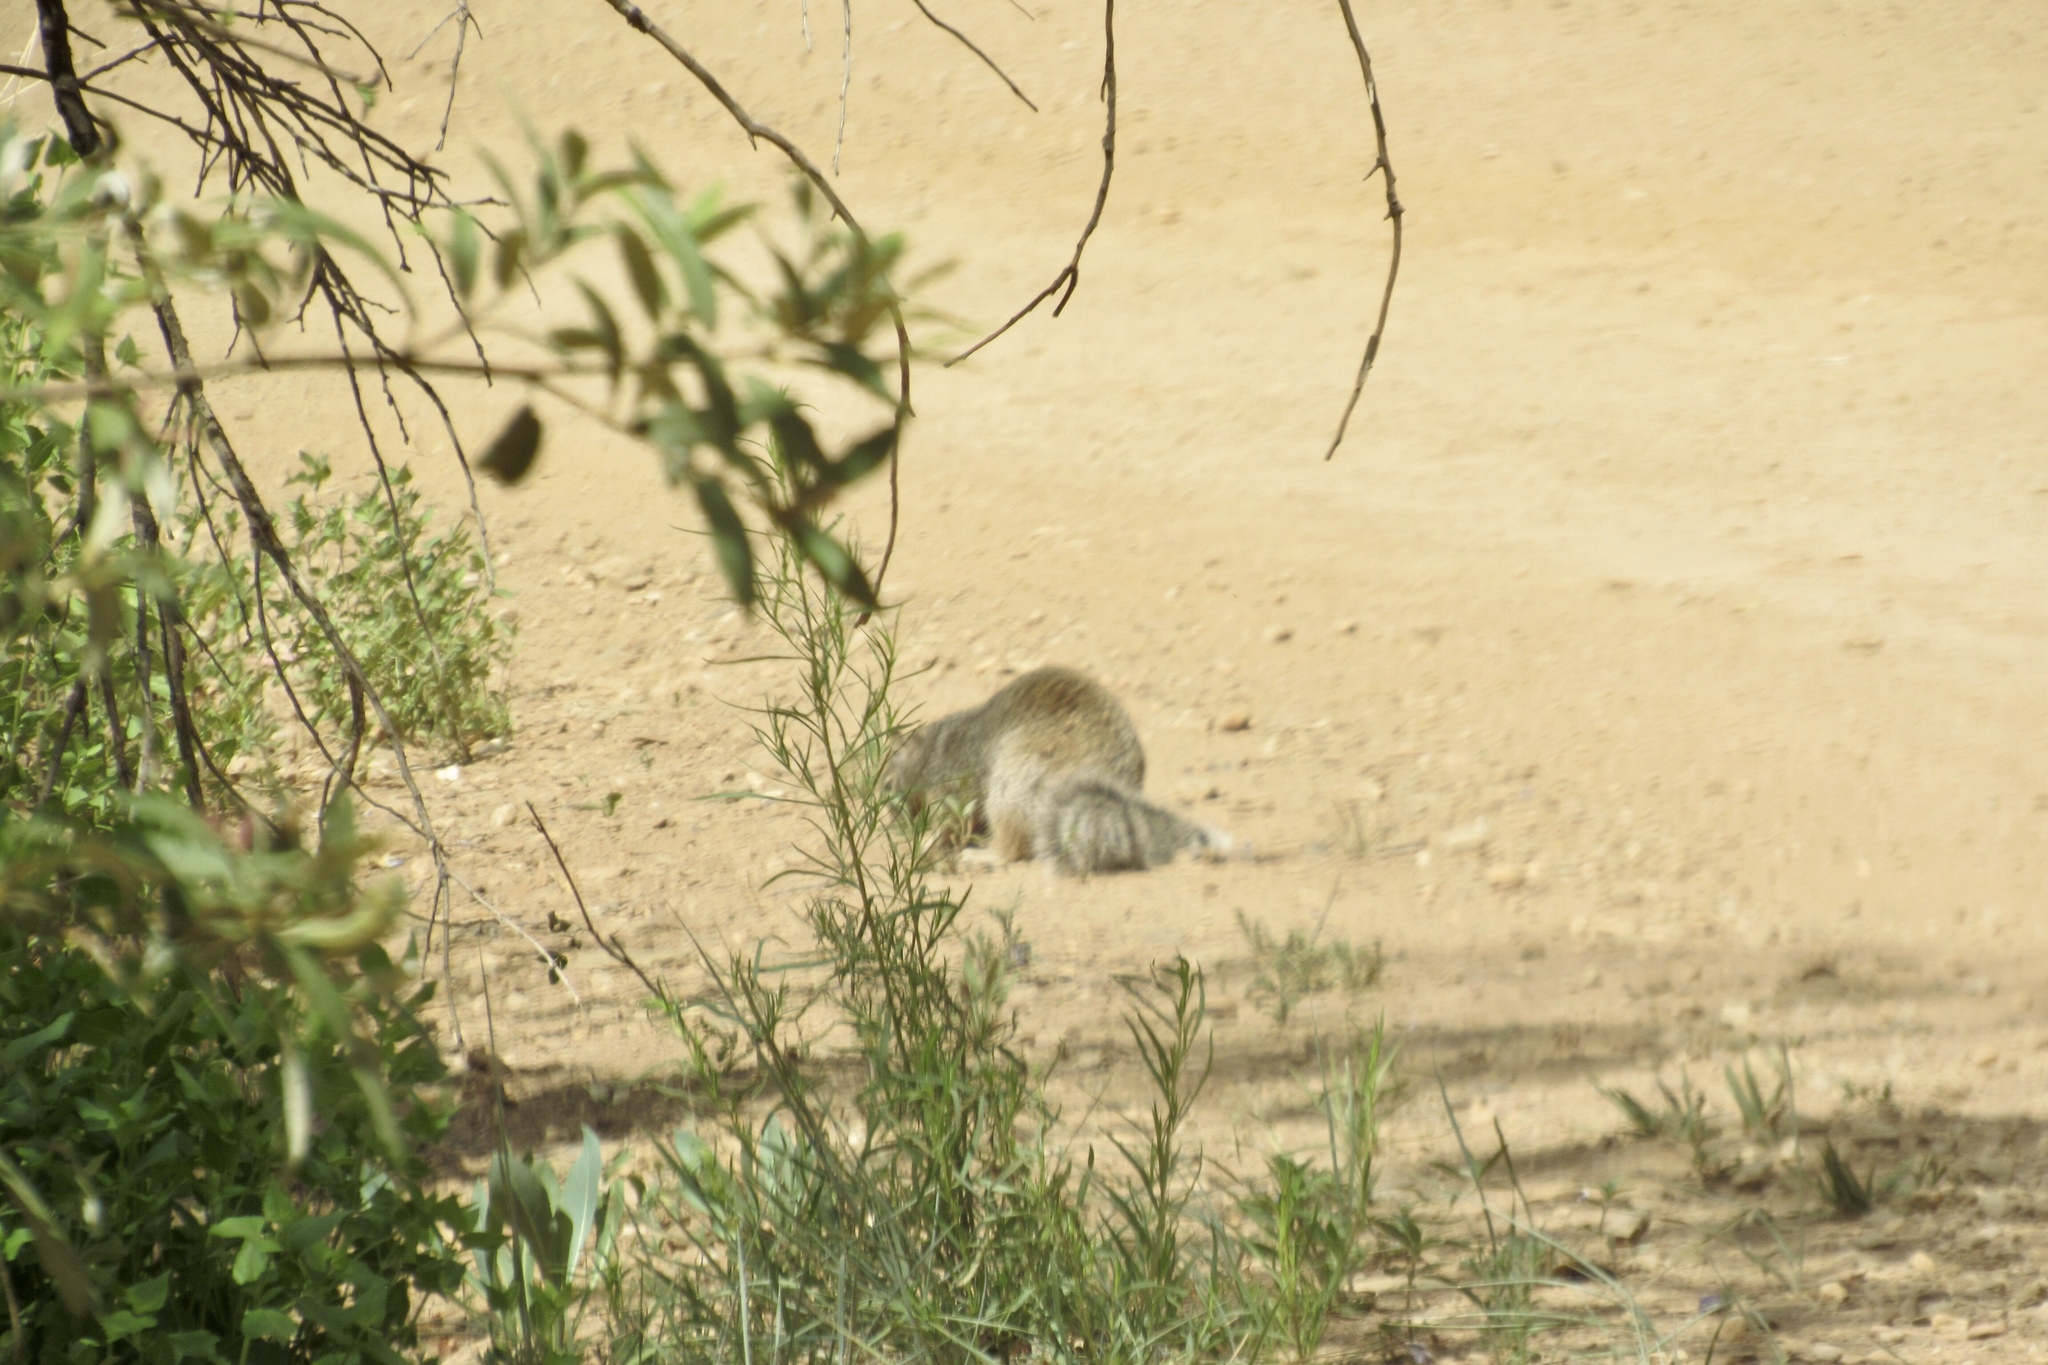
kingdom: Animalia
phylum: Chordata
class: Mammalia
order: Rodentia
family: Sciuridae
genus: Otospermophilus
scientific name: Otospermophilus variegatus
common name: Rock squirrel
